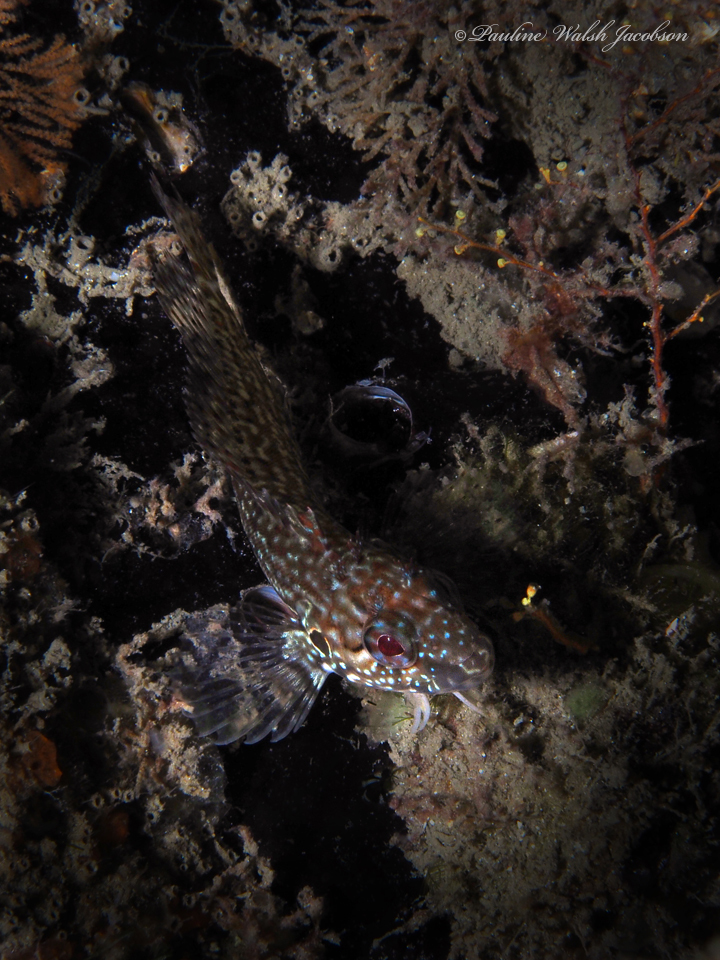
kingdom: Animalia
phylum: Chordata
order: Perciformes
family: Labrisomidae
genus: Labrisomus
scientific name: Labrisomus conditus
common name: Masquerader hairy blenny
